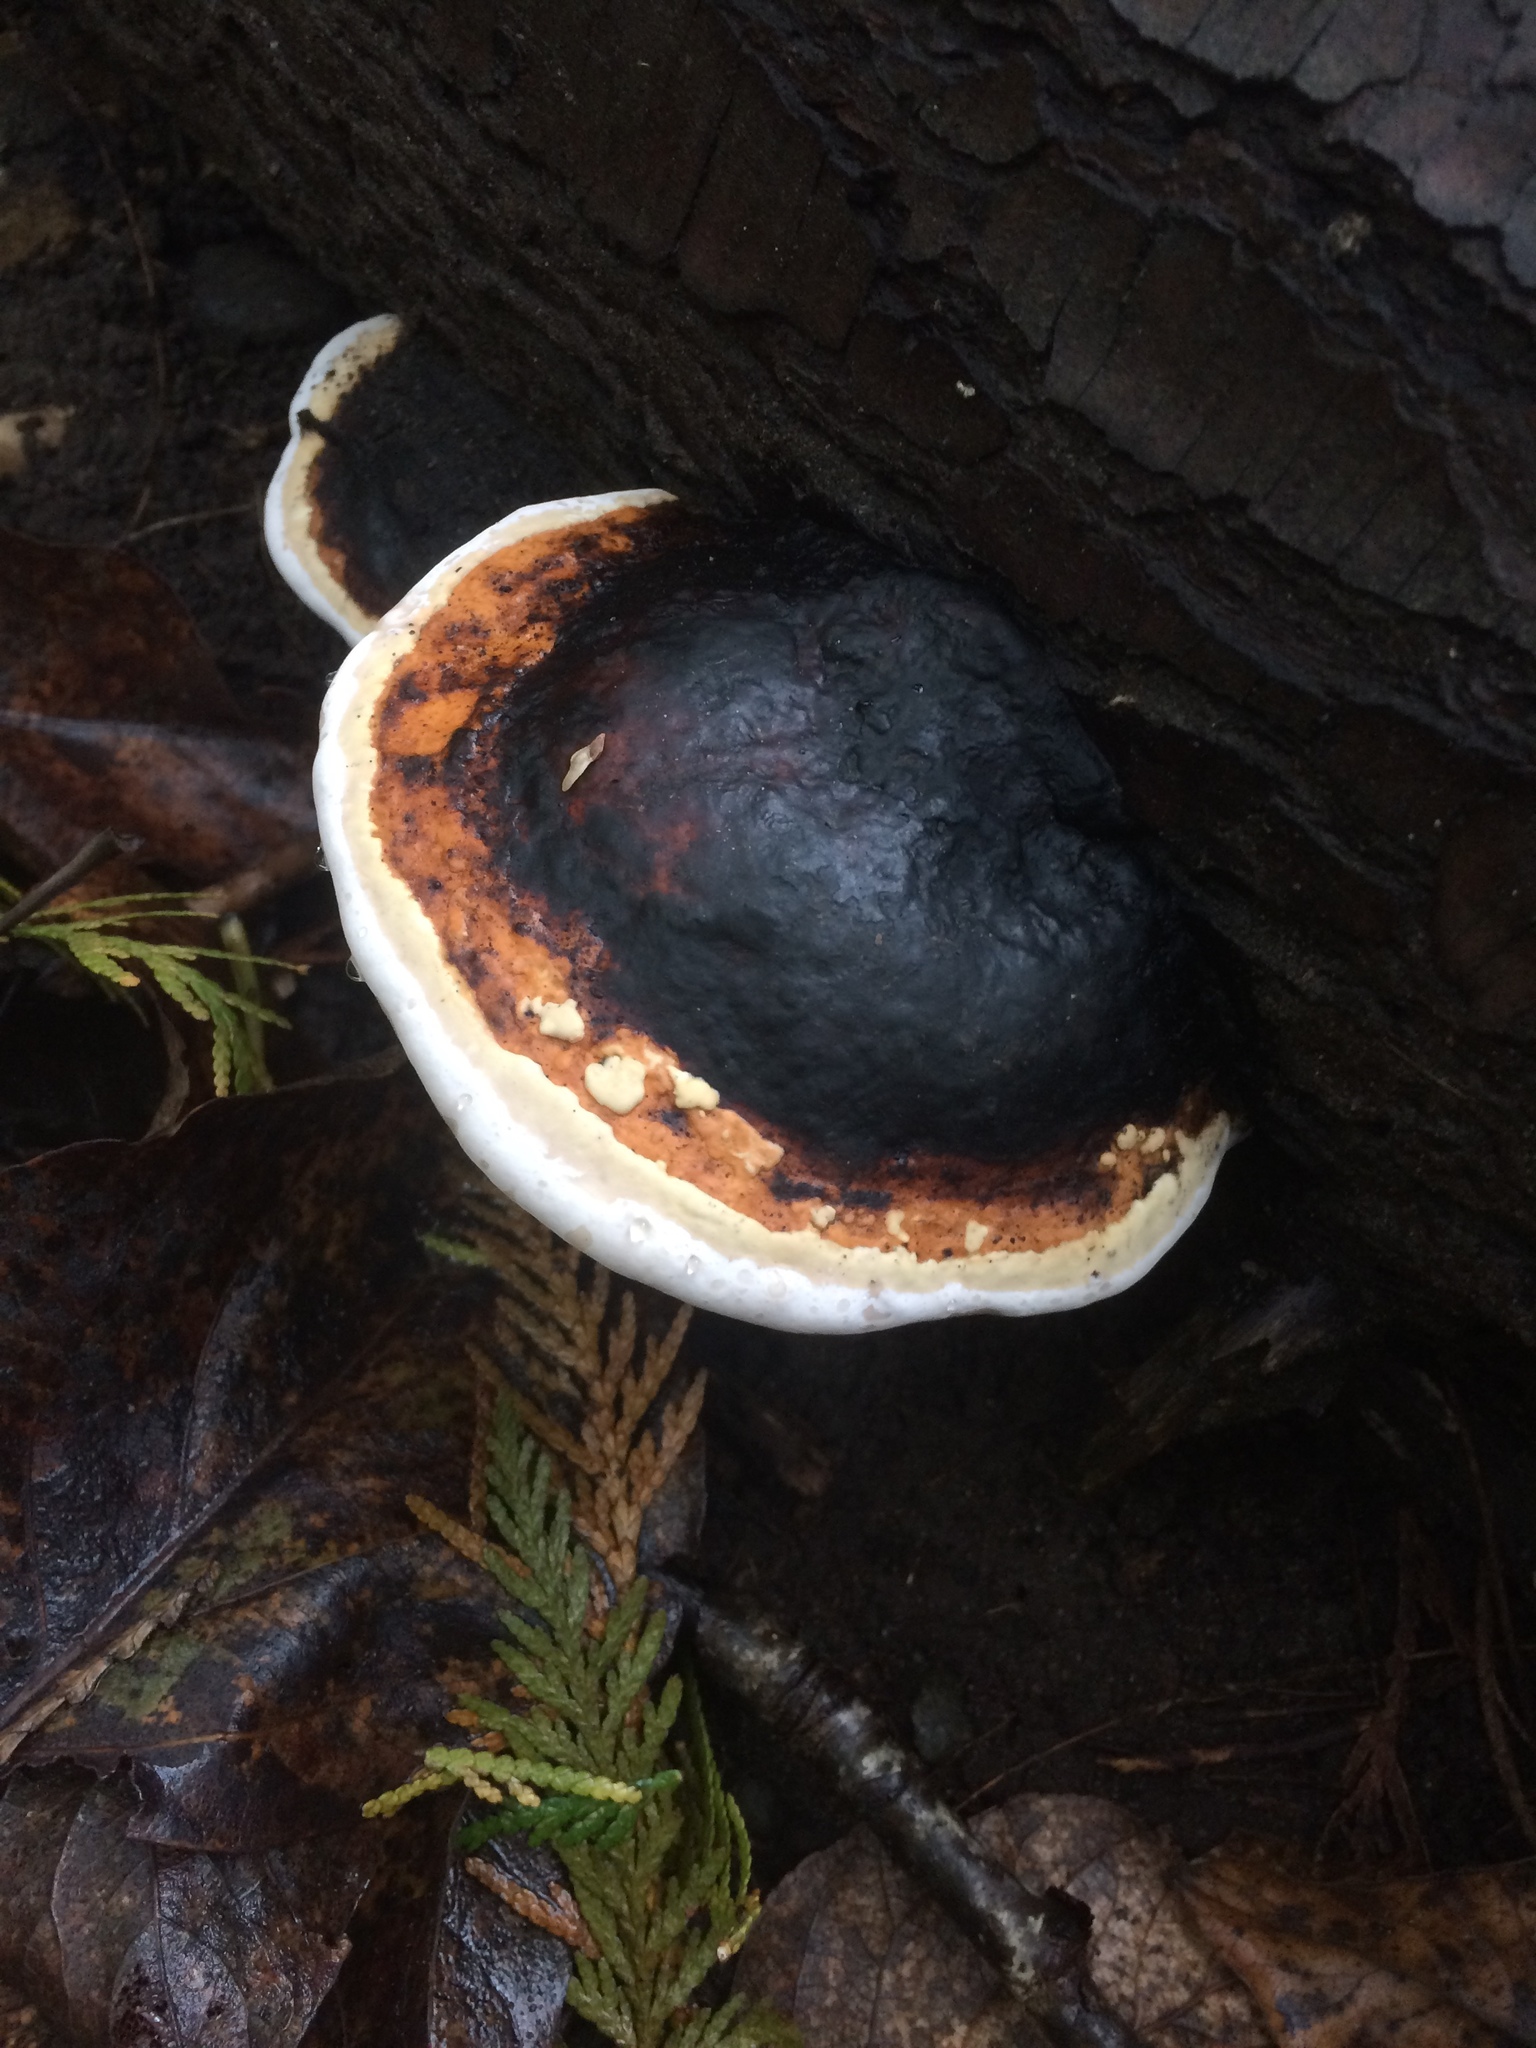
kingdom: Fungi
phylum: Basidiomycota
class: Agaricomycetes
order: Polyporales
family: Fomitopsidaceae
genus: Fomitopsis
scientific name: Fomitopsis mounceae
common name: Northern red belt
